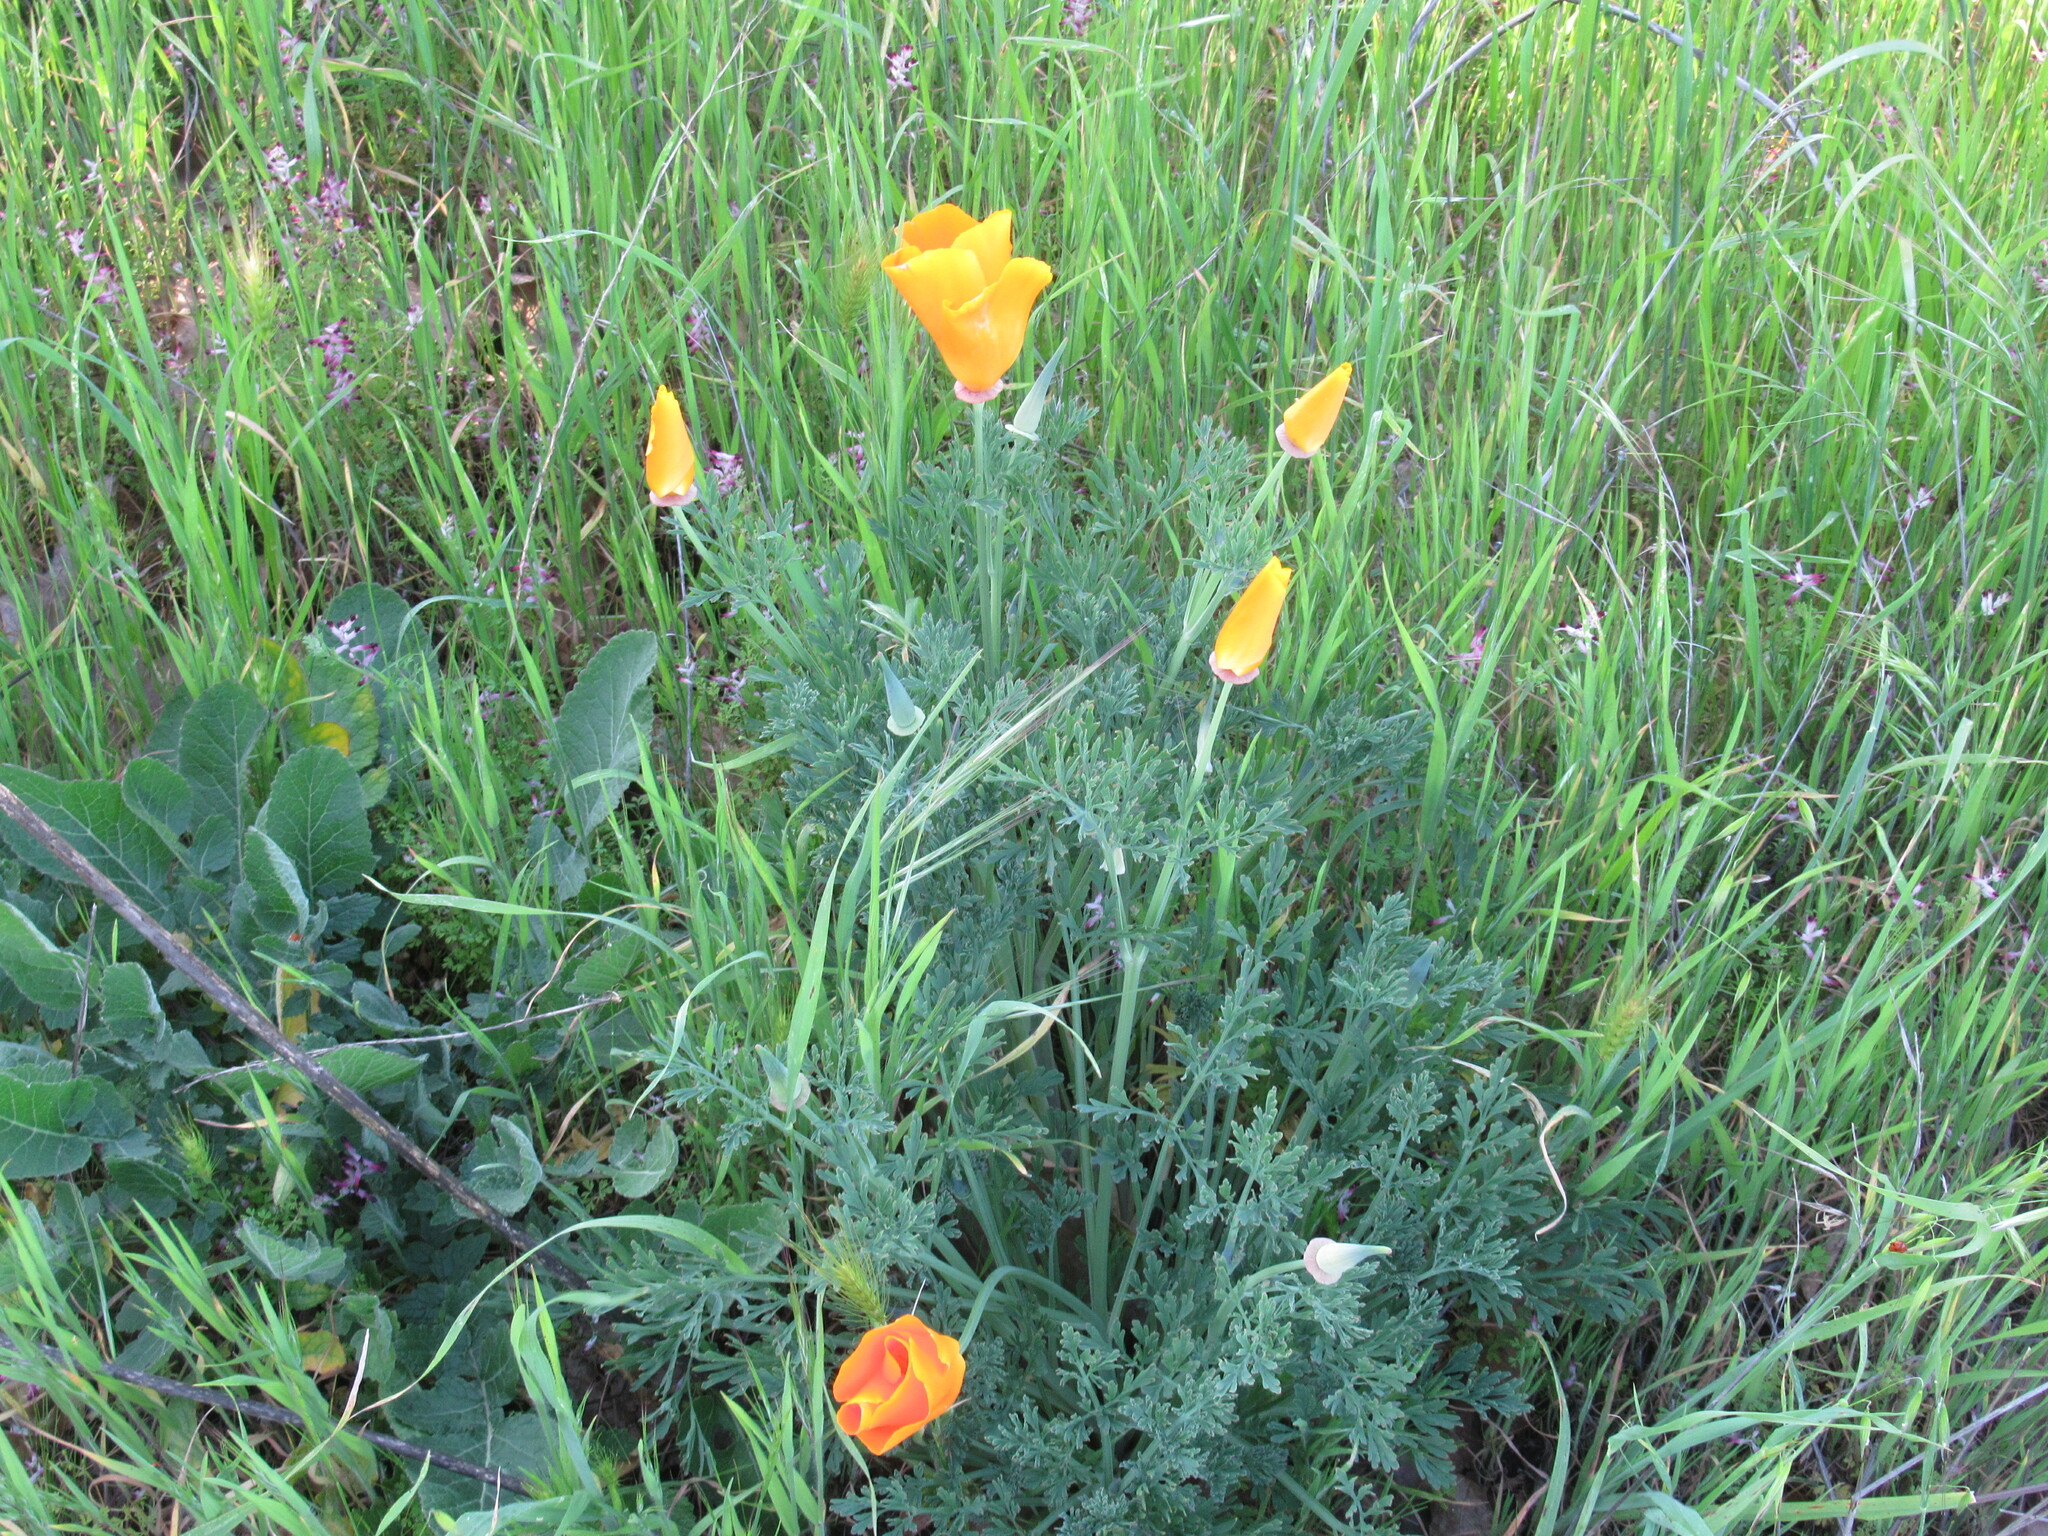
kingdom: Plantae
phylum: Tracheophyta
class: Magnoliopsida
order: Ranunculales
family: Papaveraceae
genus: Eschscholzia
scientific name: Eschscholzia californica
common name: California poppy
